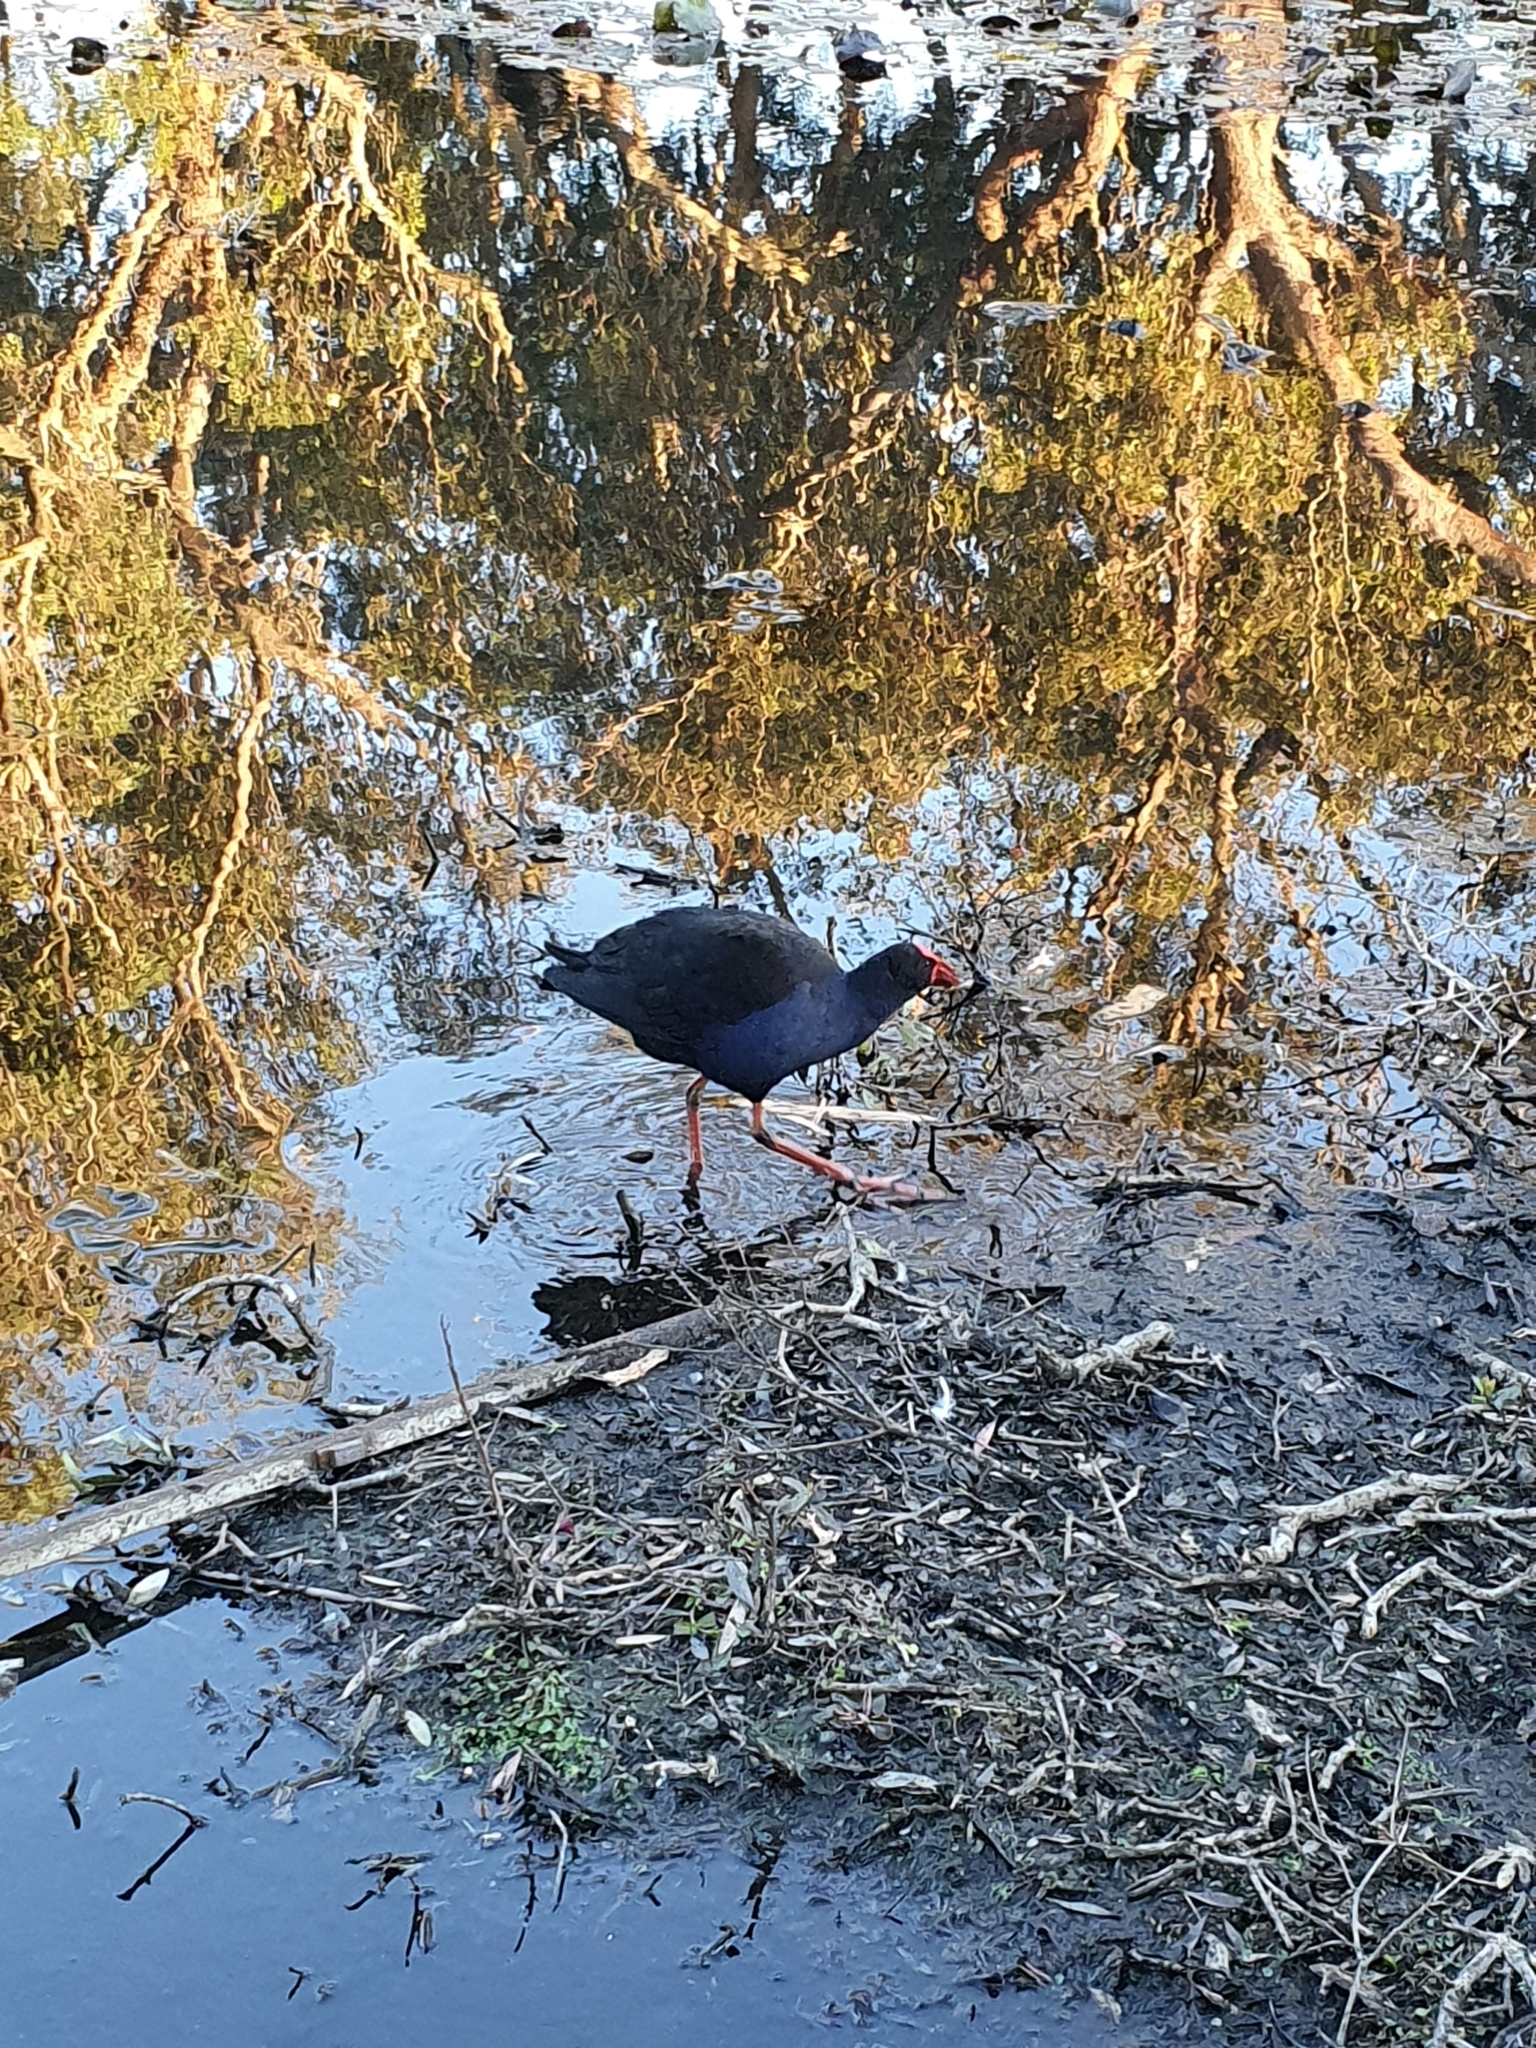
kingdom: Animalia
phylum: Chordata
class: Aves
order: Gruiformes
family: Rallidae
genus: Porphyrio
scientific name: Porphyrio melanotus
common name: Australasian swamphen
